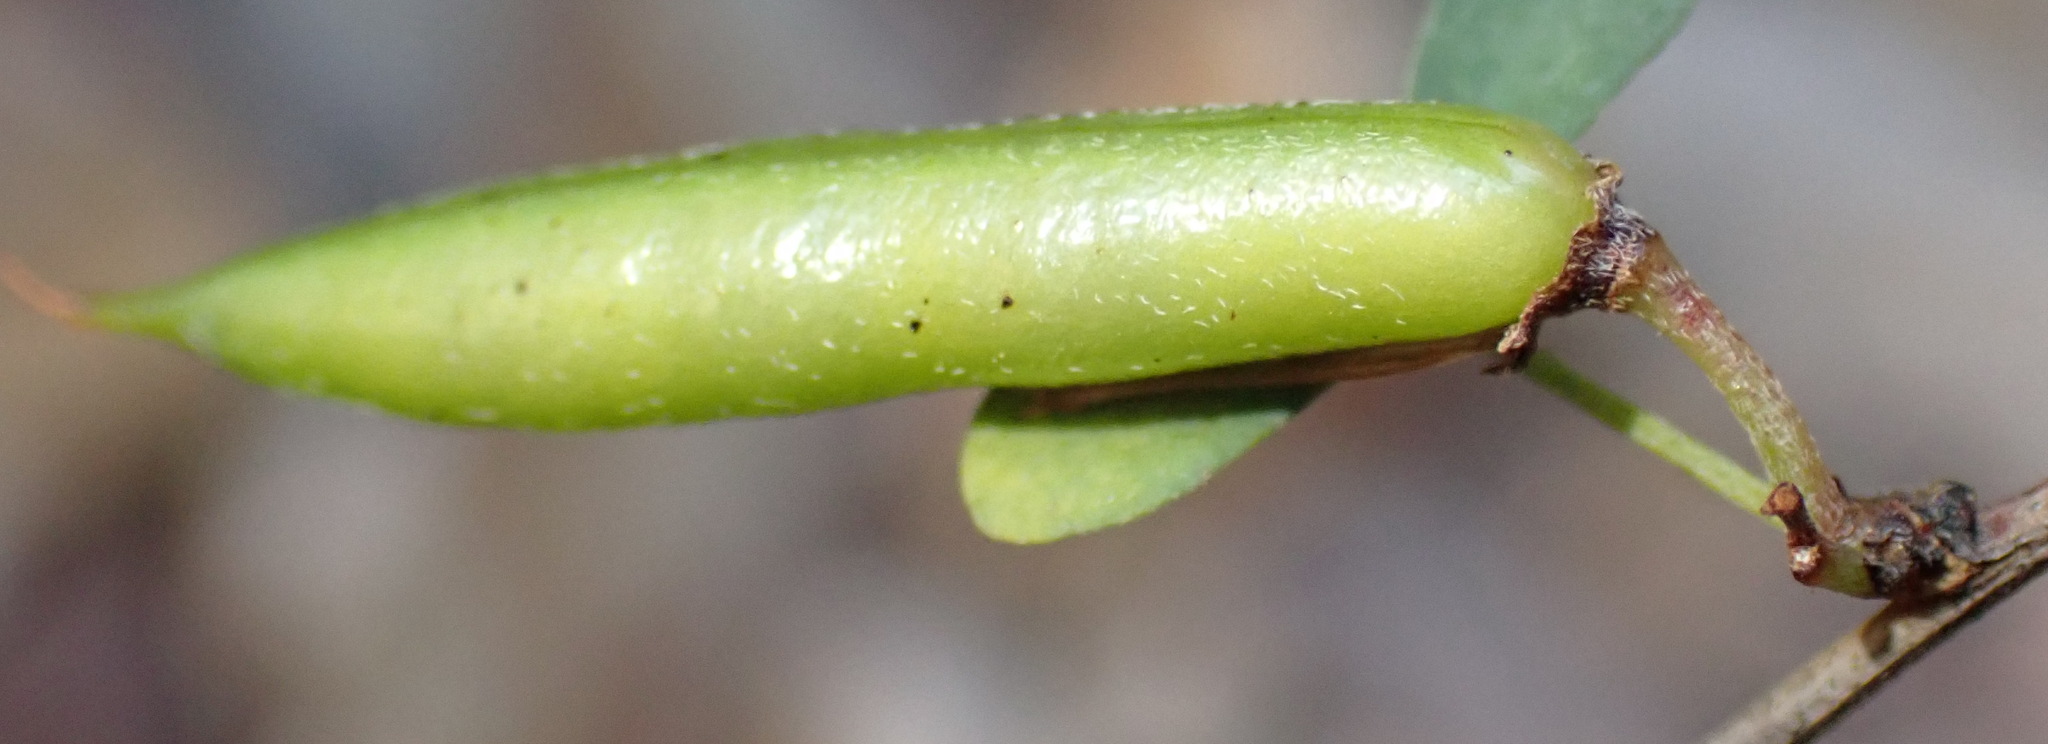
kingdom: Plantae
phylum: Tracheophyta
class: Magnoliopsida
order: Fabales
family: Fabaceae
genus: Indigofera
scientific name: Indigofera denudata
